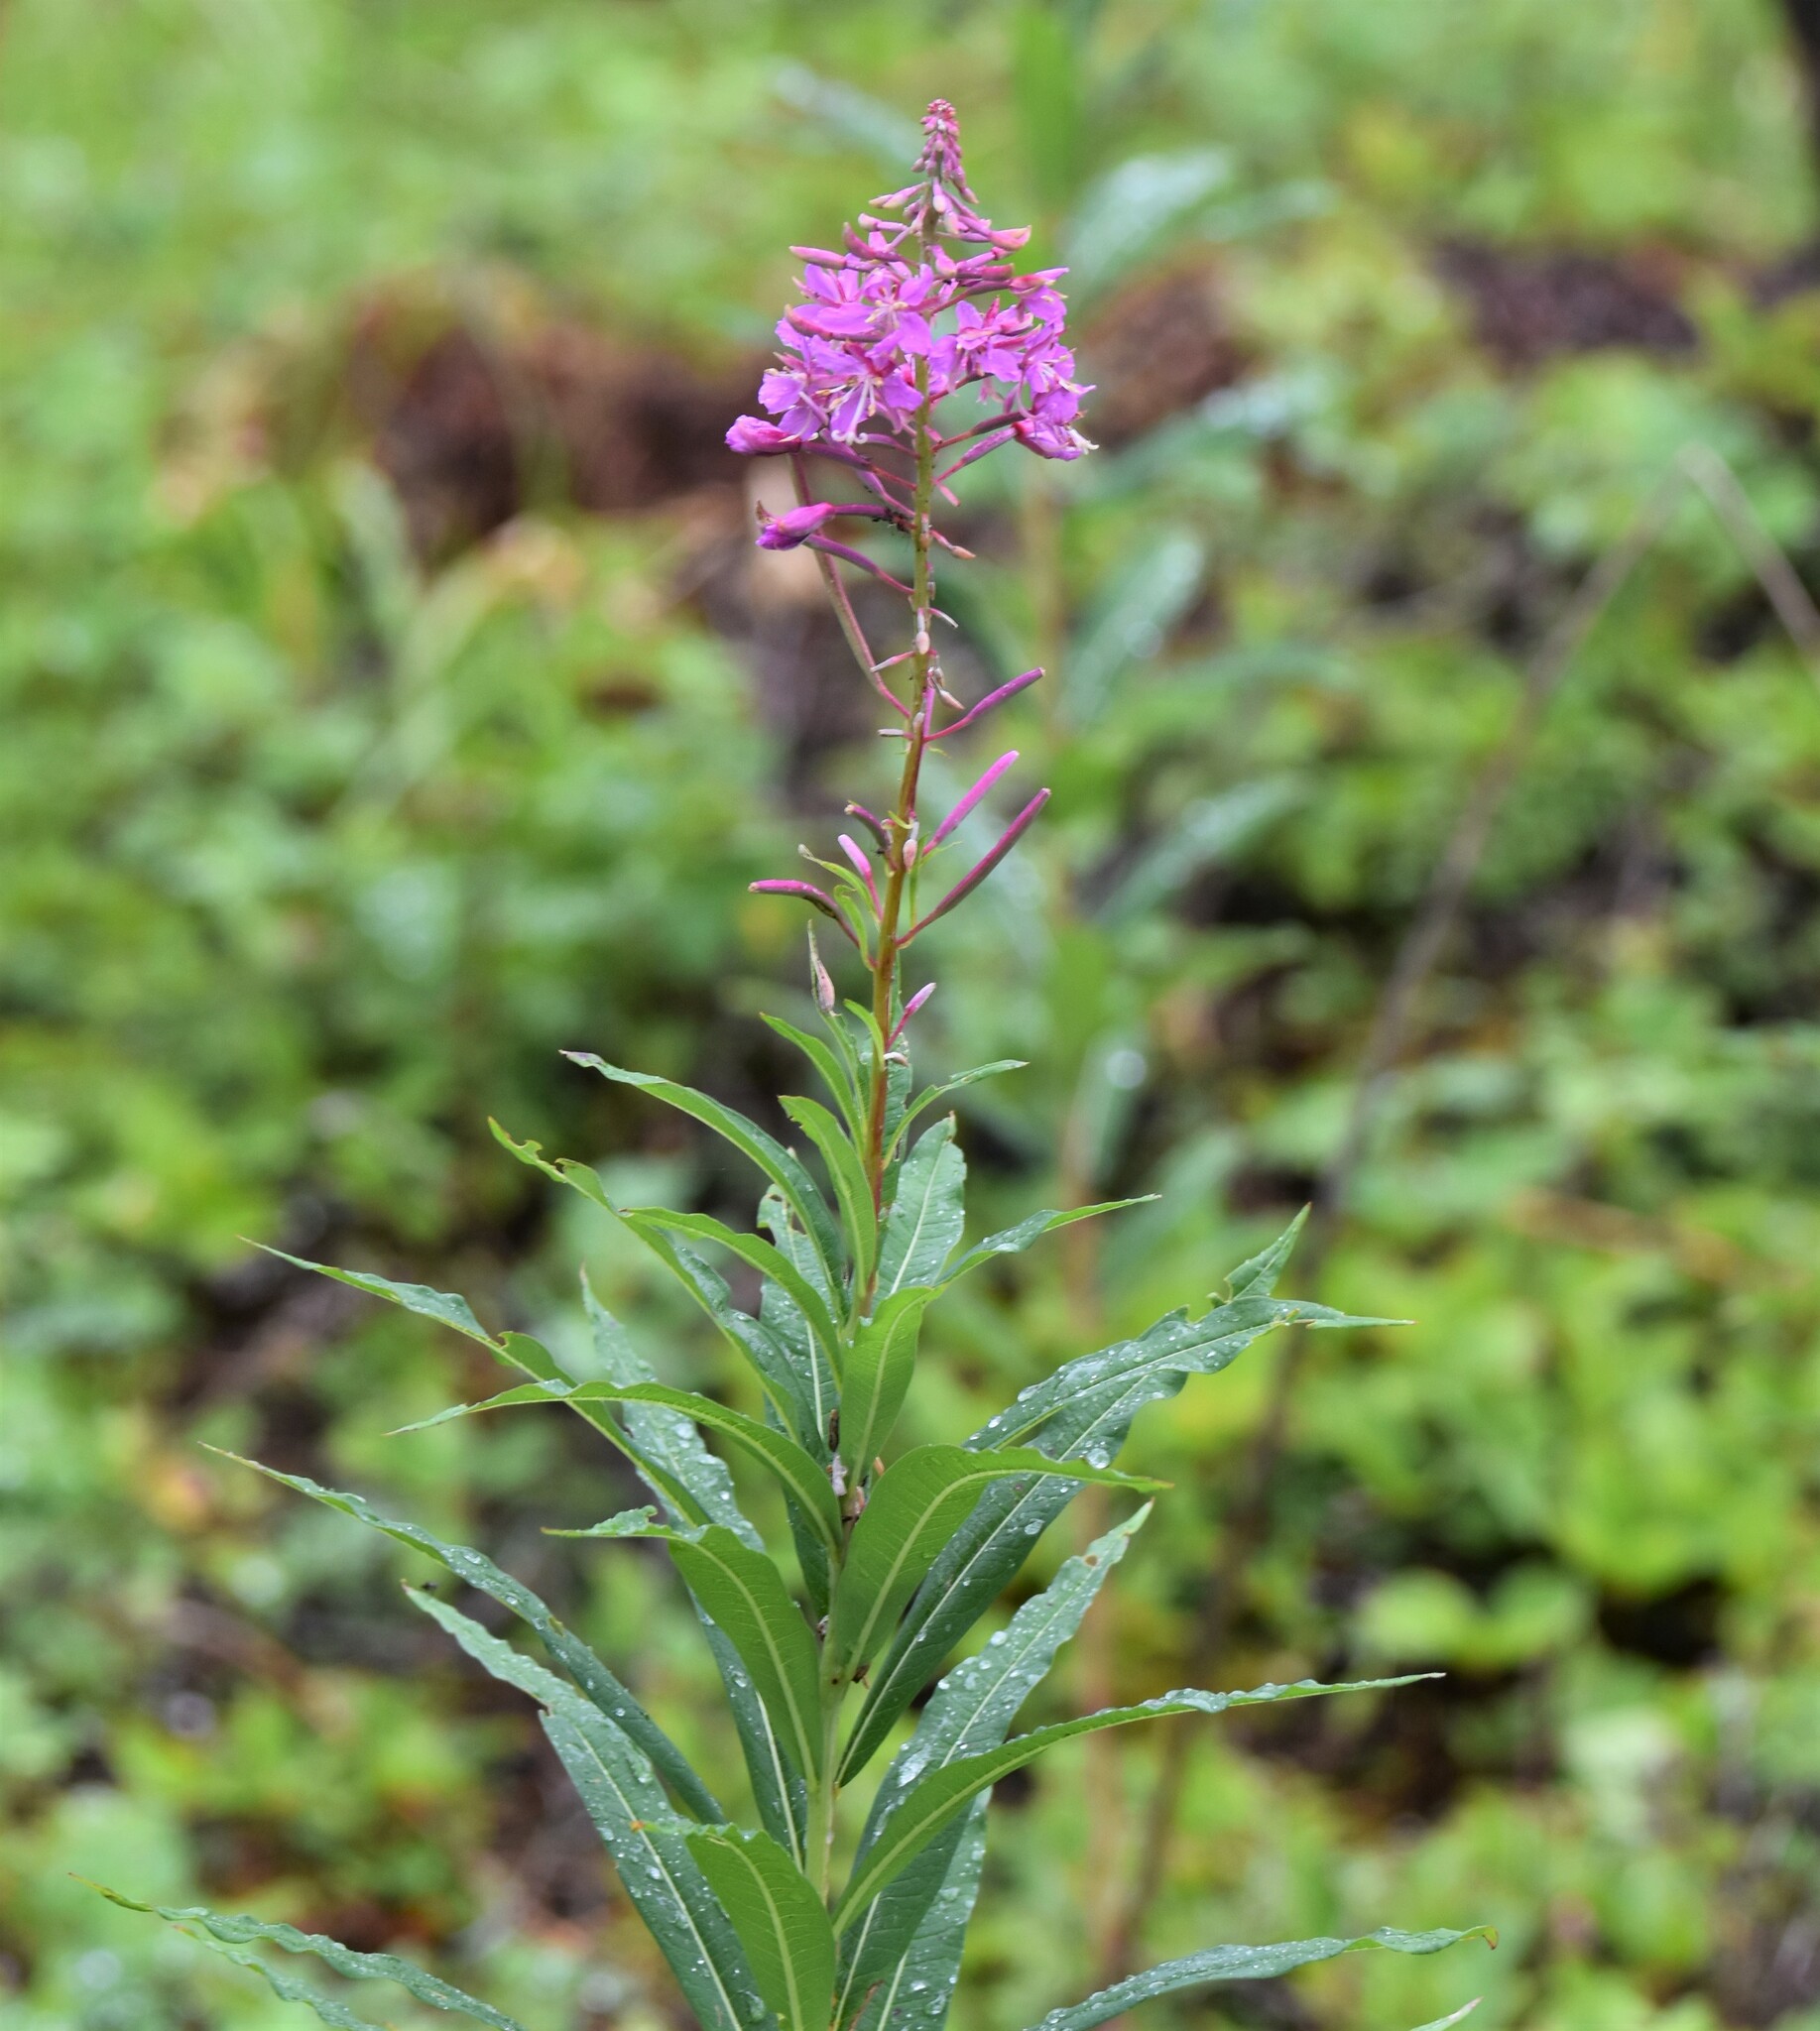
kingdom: Plantae
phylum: Tracheophyta
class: Magnoliopsida
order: Myrtales
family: Onagraceae
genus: Chamaenerion
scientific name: Chamaenerion angustifolium
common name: Fireweed
